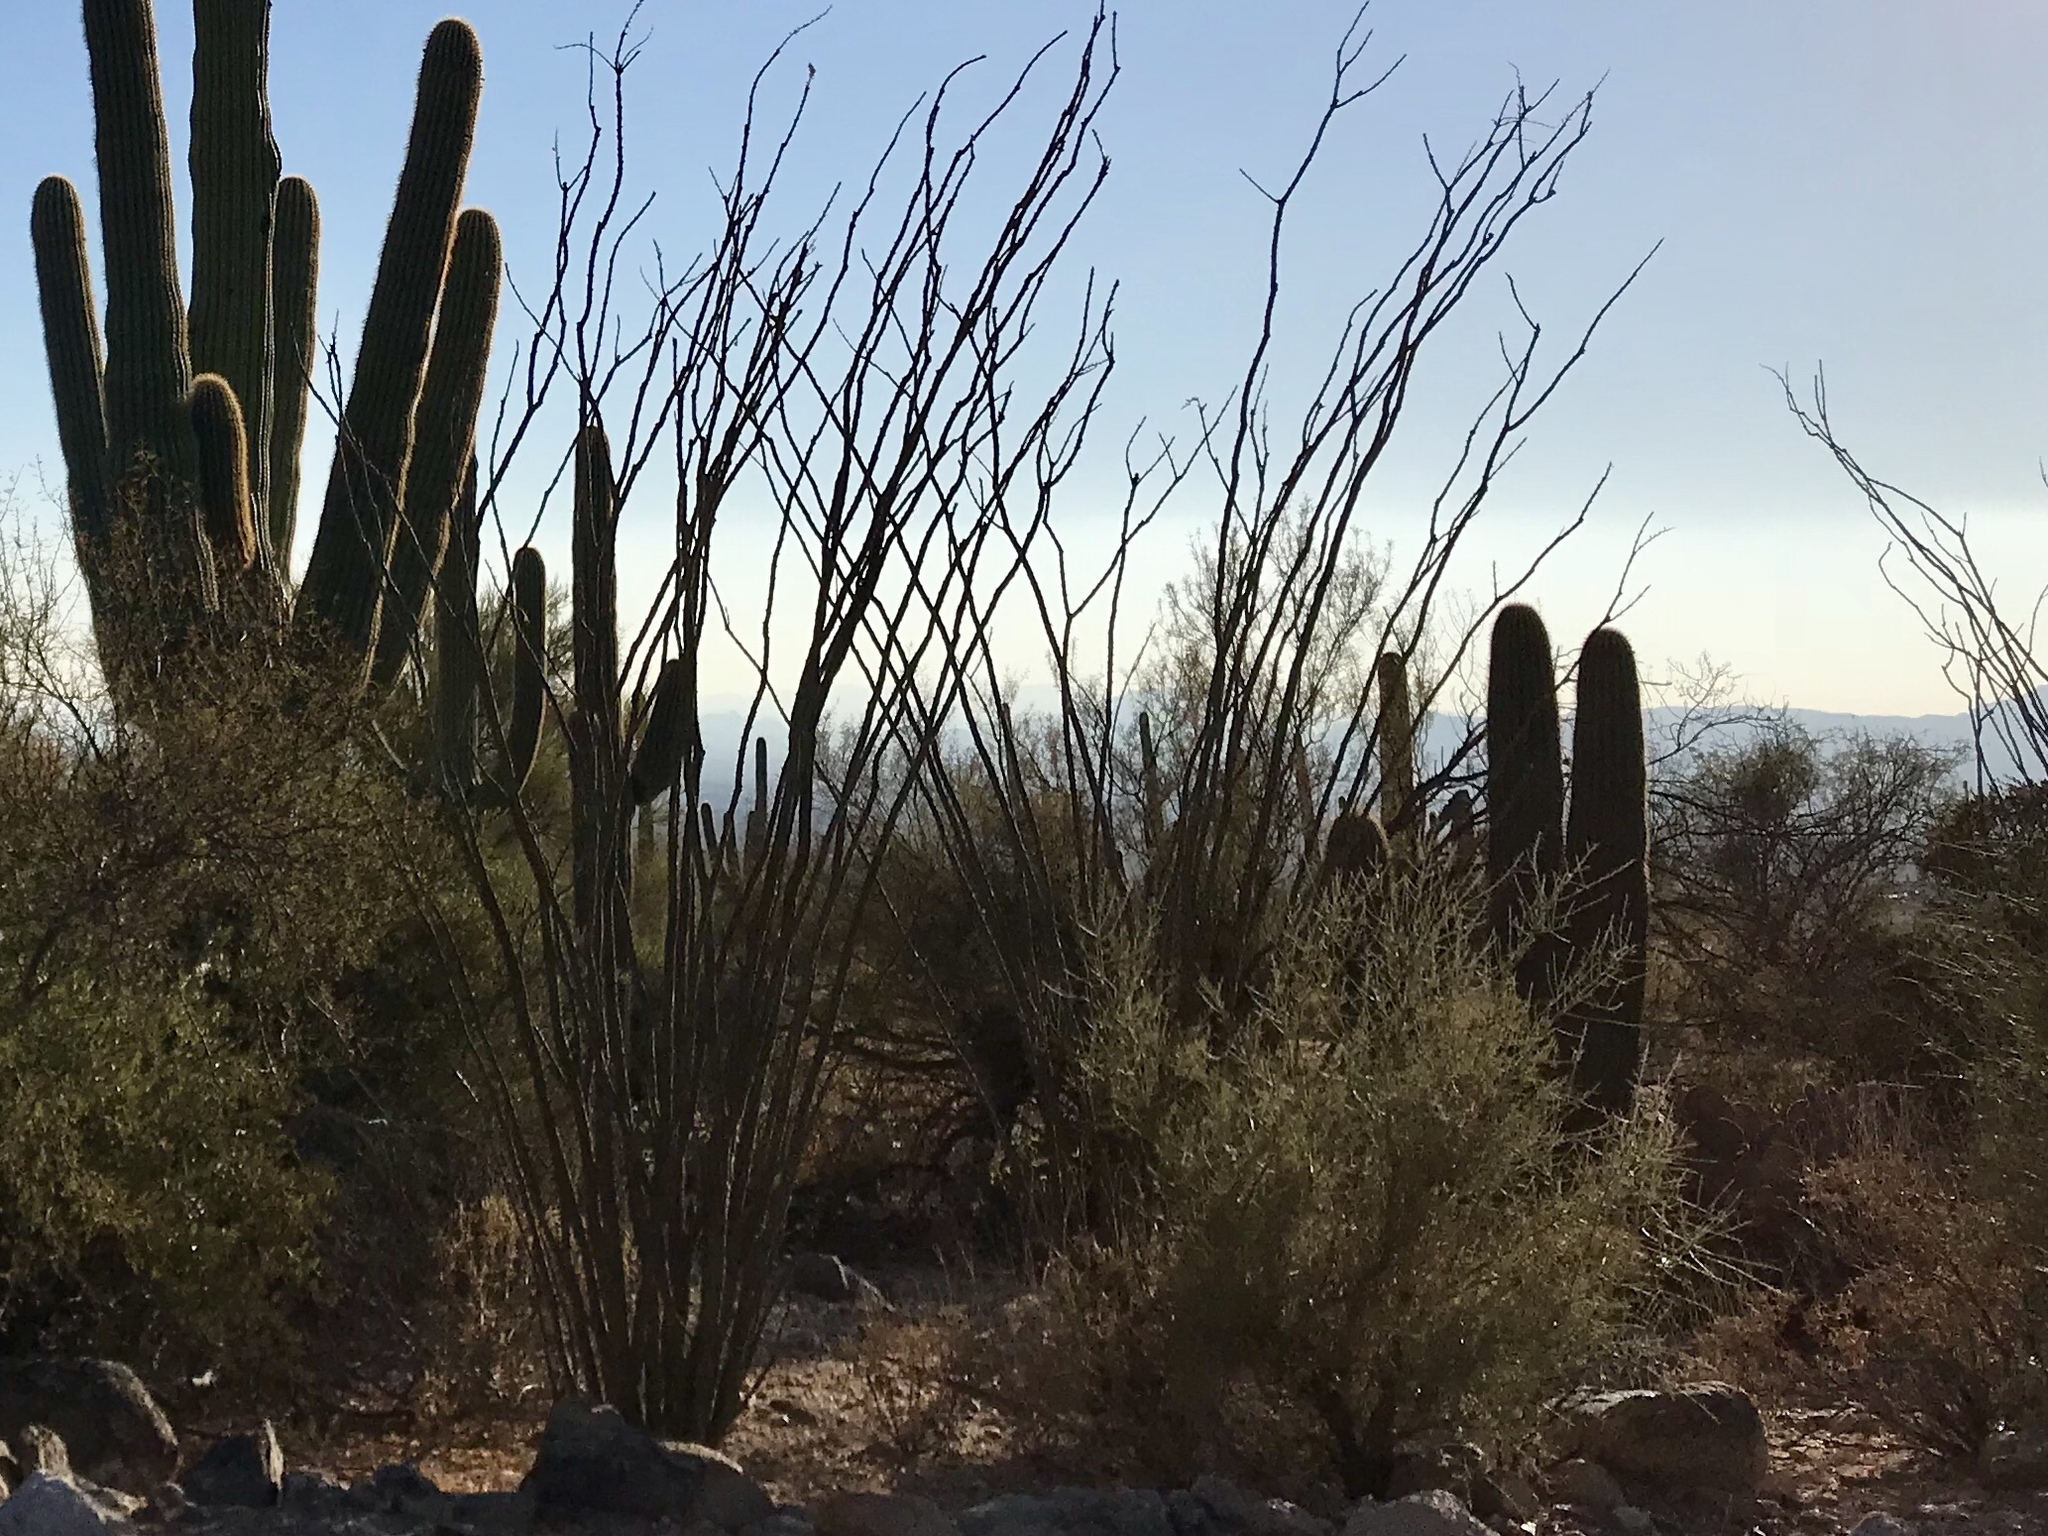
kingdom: Plantae
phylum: Tracheophyta
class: Magnoliopsida
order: Ericales
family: Fouquieriaceae
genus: Fouquieria
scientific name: Fouquieria splendens
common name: Vine-cactus
